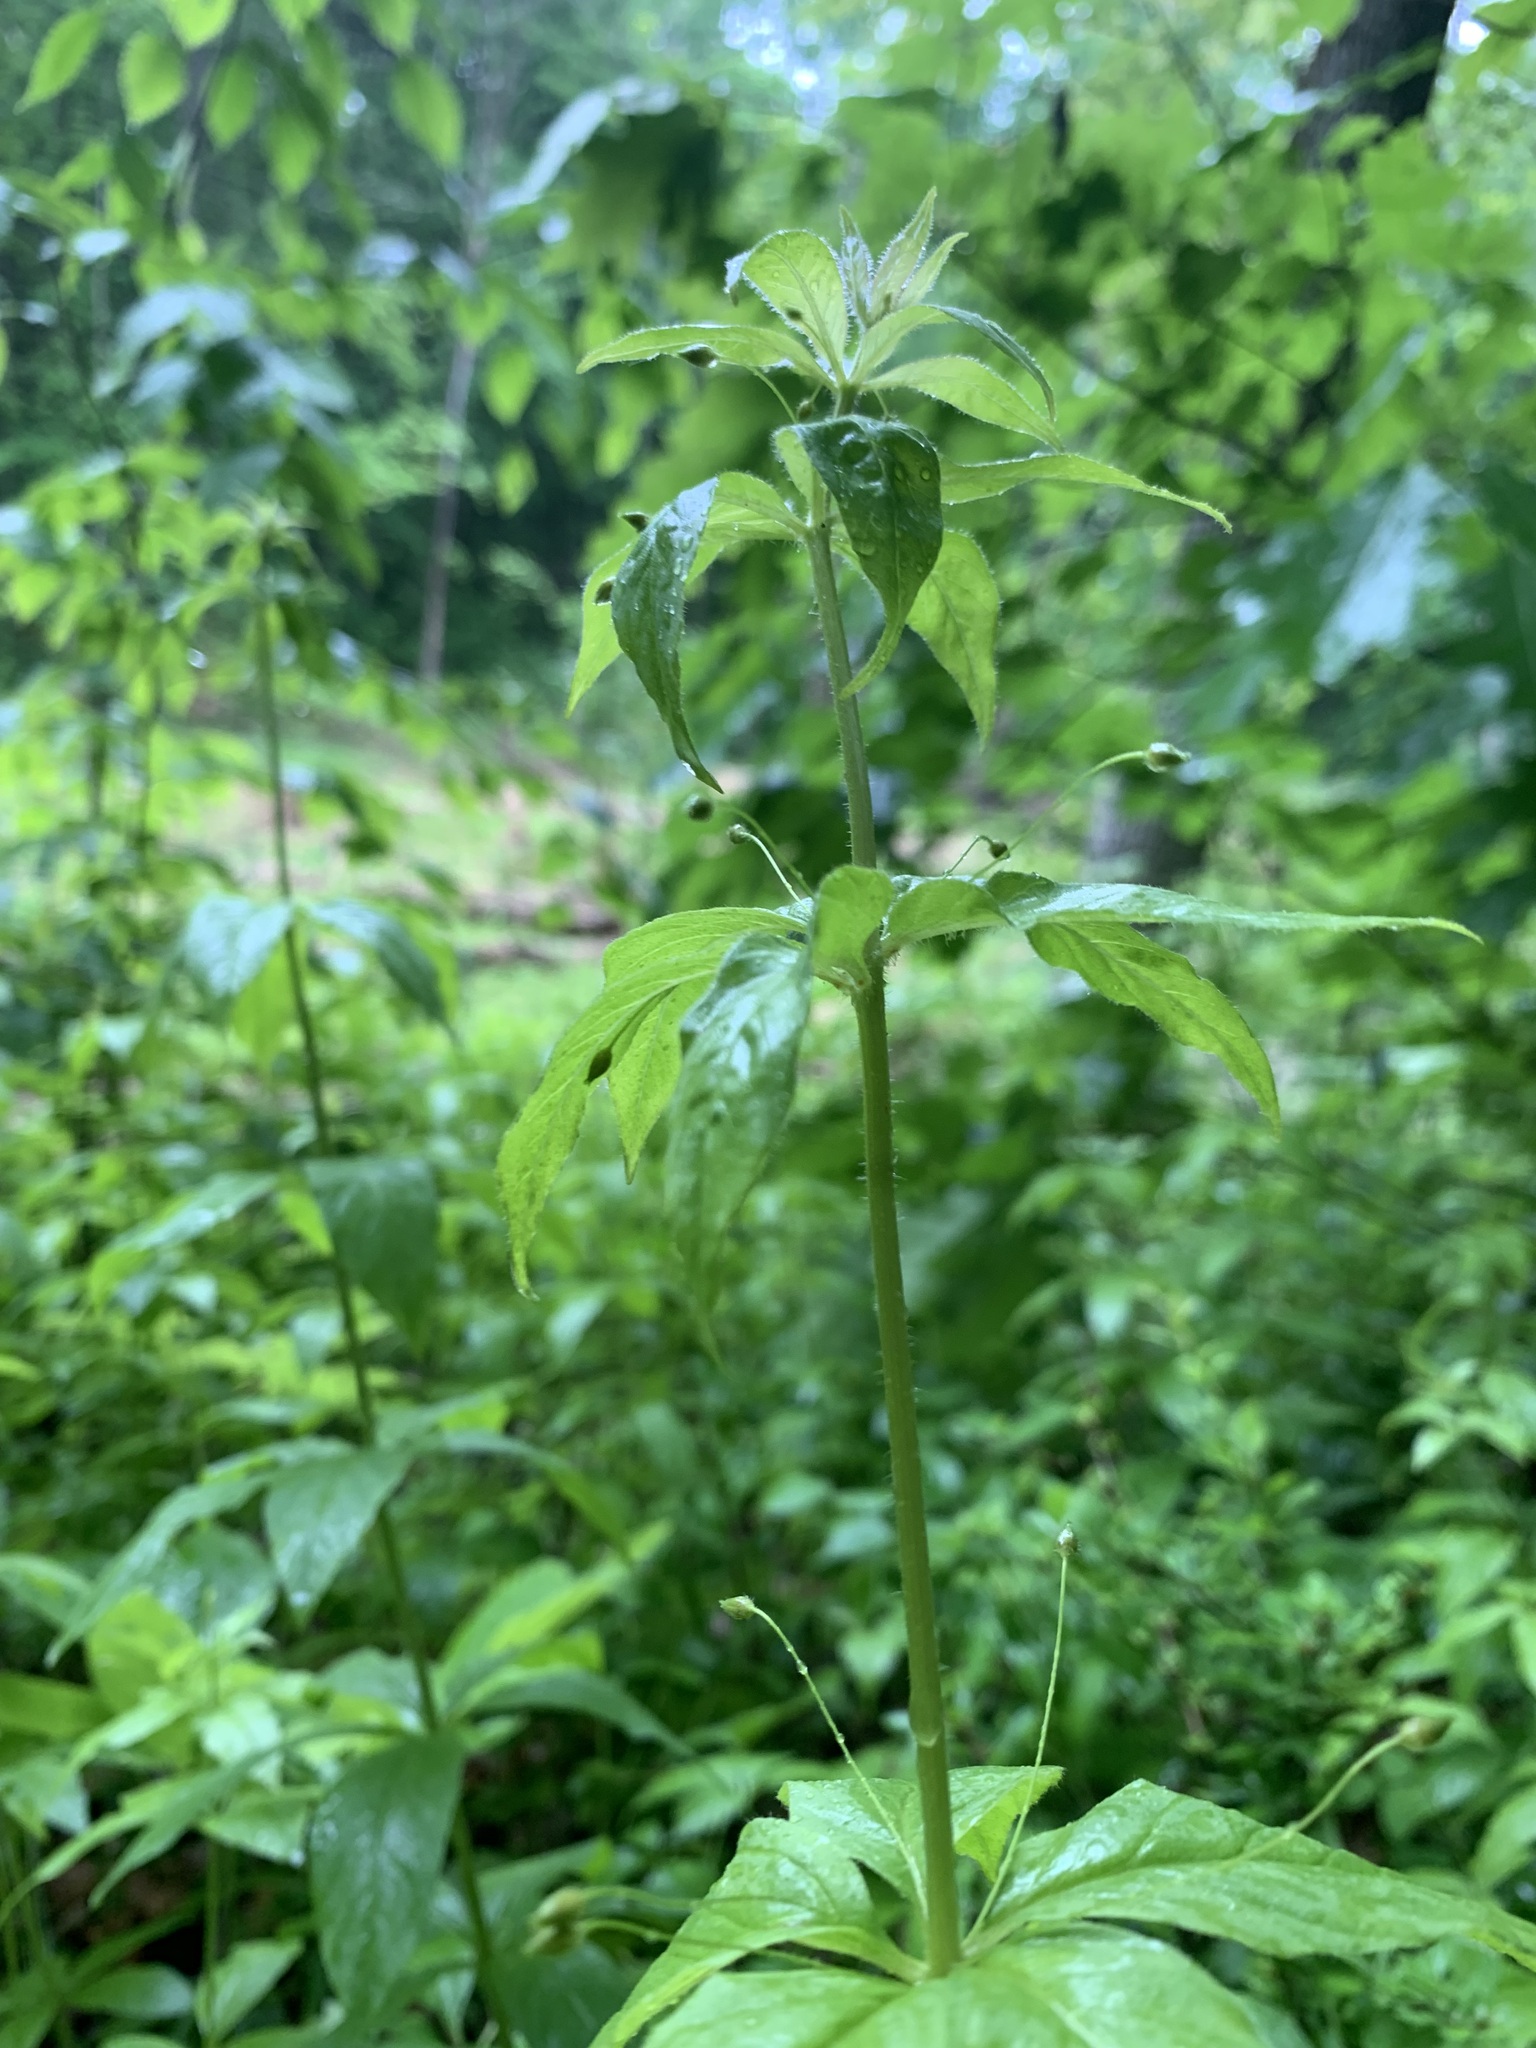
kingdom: Plantae
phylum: Tracheophyta
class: Magnoliopsida
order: Ericales
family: Primulaceae
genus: Lysimachia
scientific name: Lysimachia quadrifolia
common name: Whorled loosestrife
